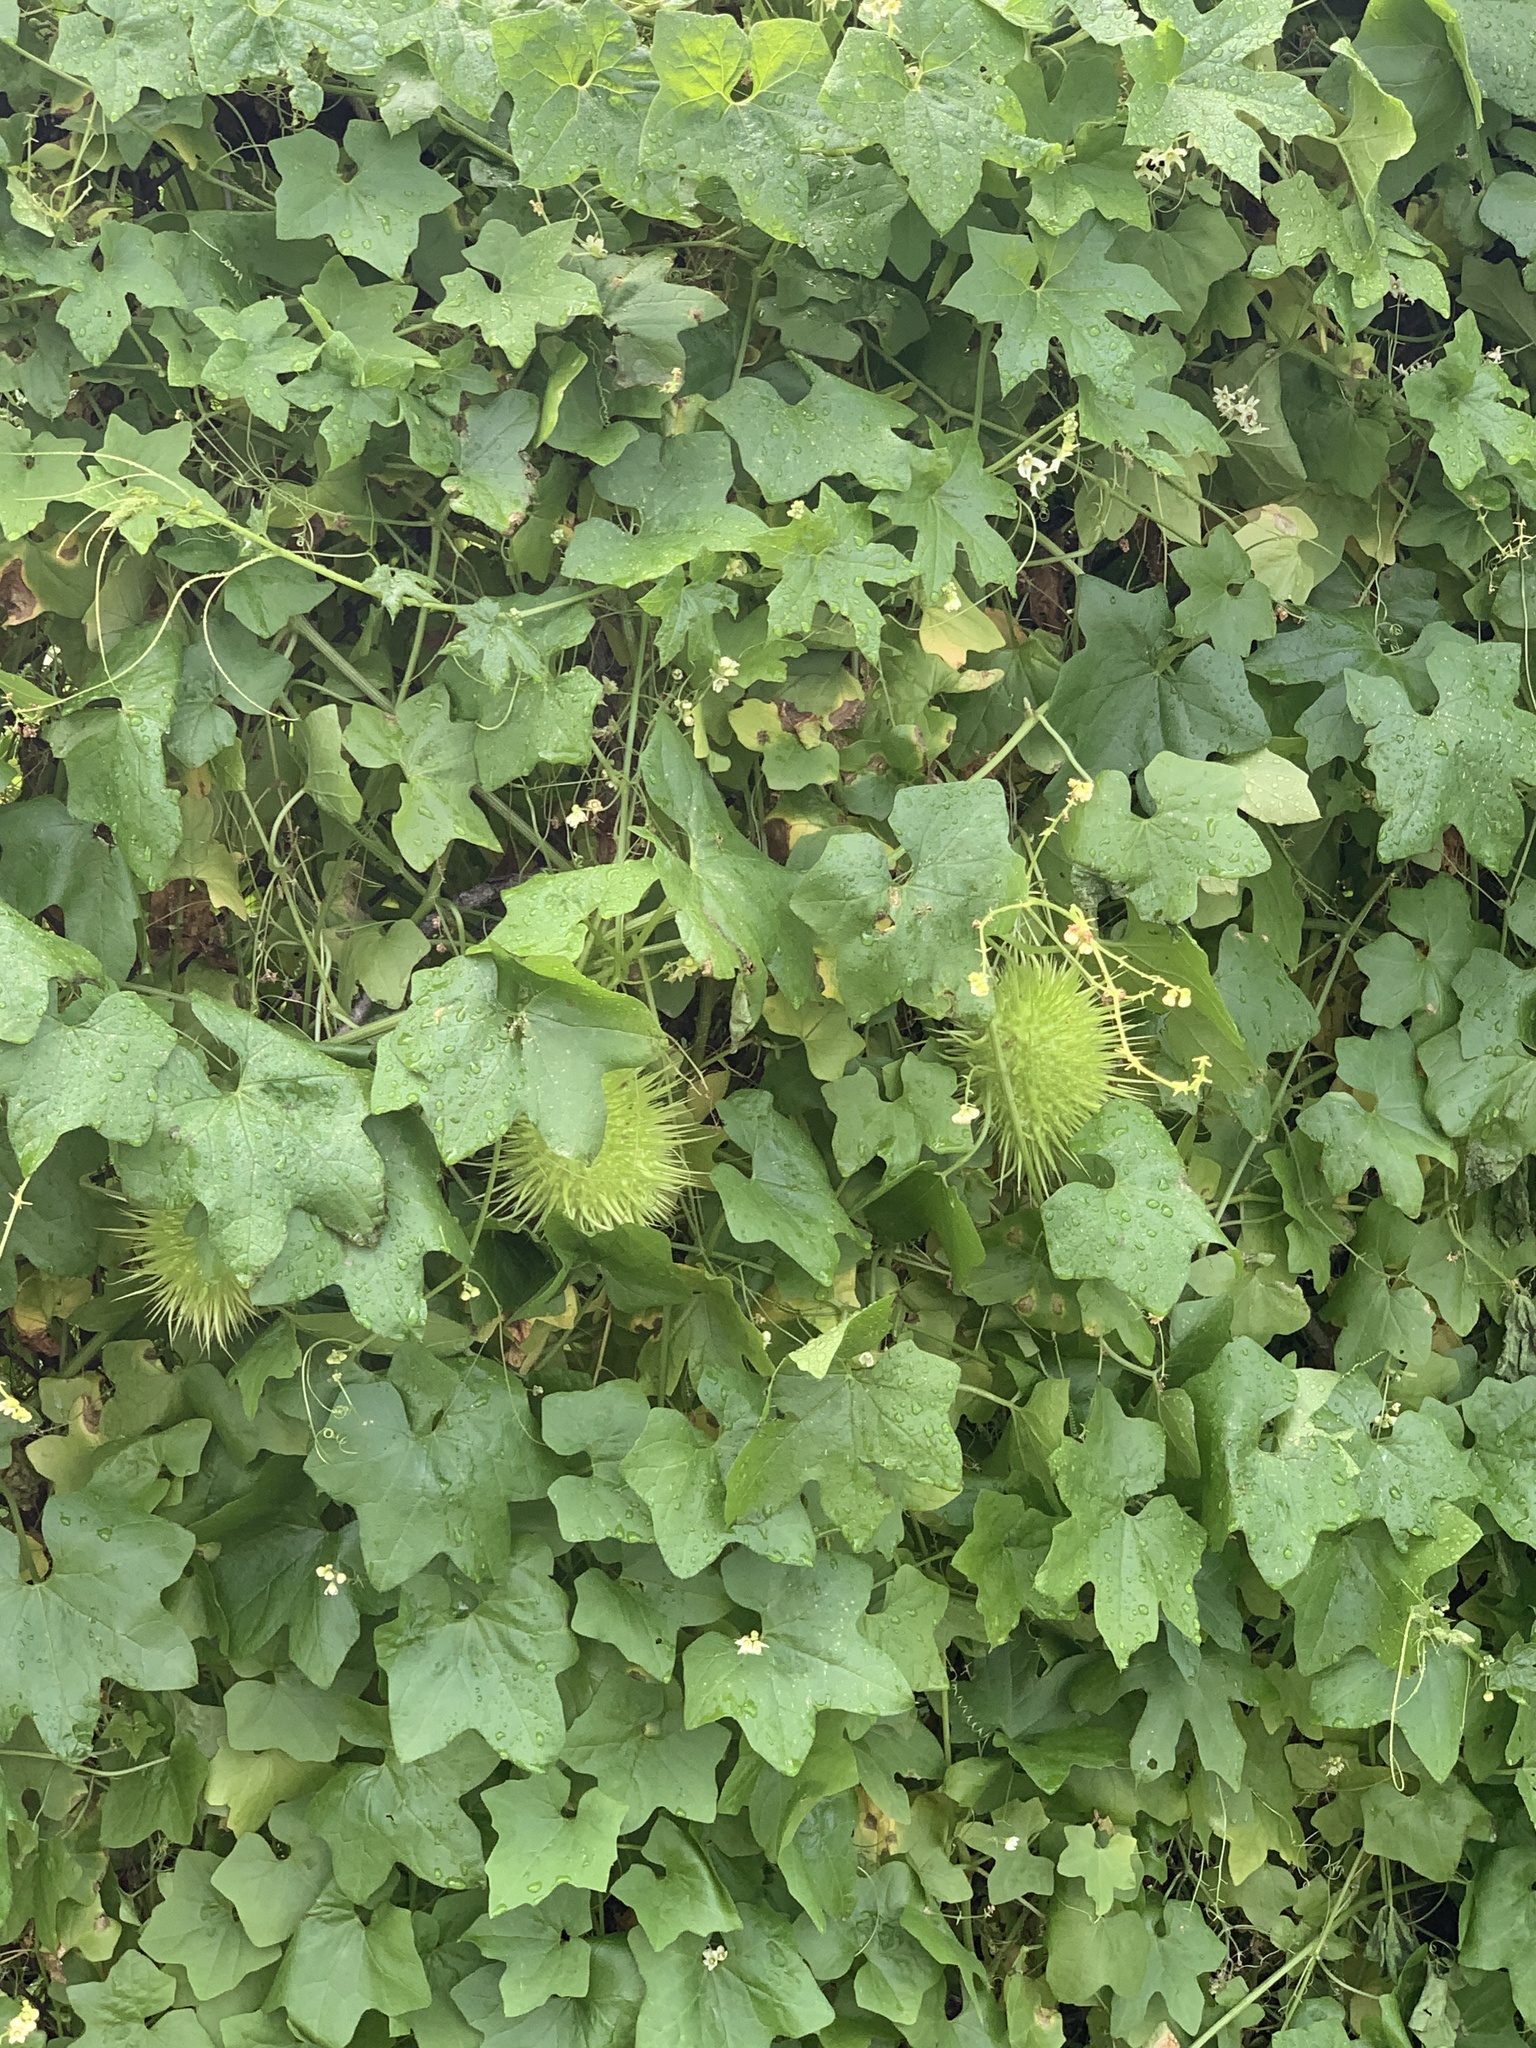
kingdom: Plantae
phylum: Tracheophyta
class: Magnoliopsida
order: Cucurbitales
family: Cucurbitaceae
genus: Marah
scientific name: Marah macrocarpa
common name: Cucamonga manroot
